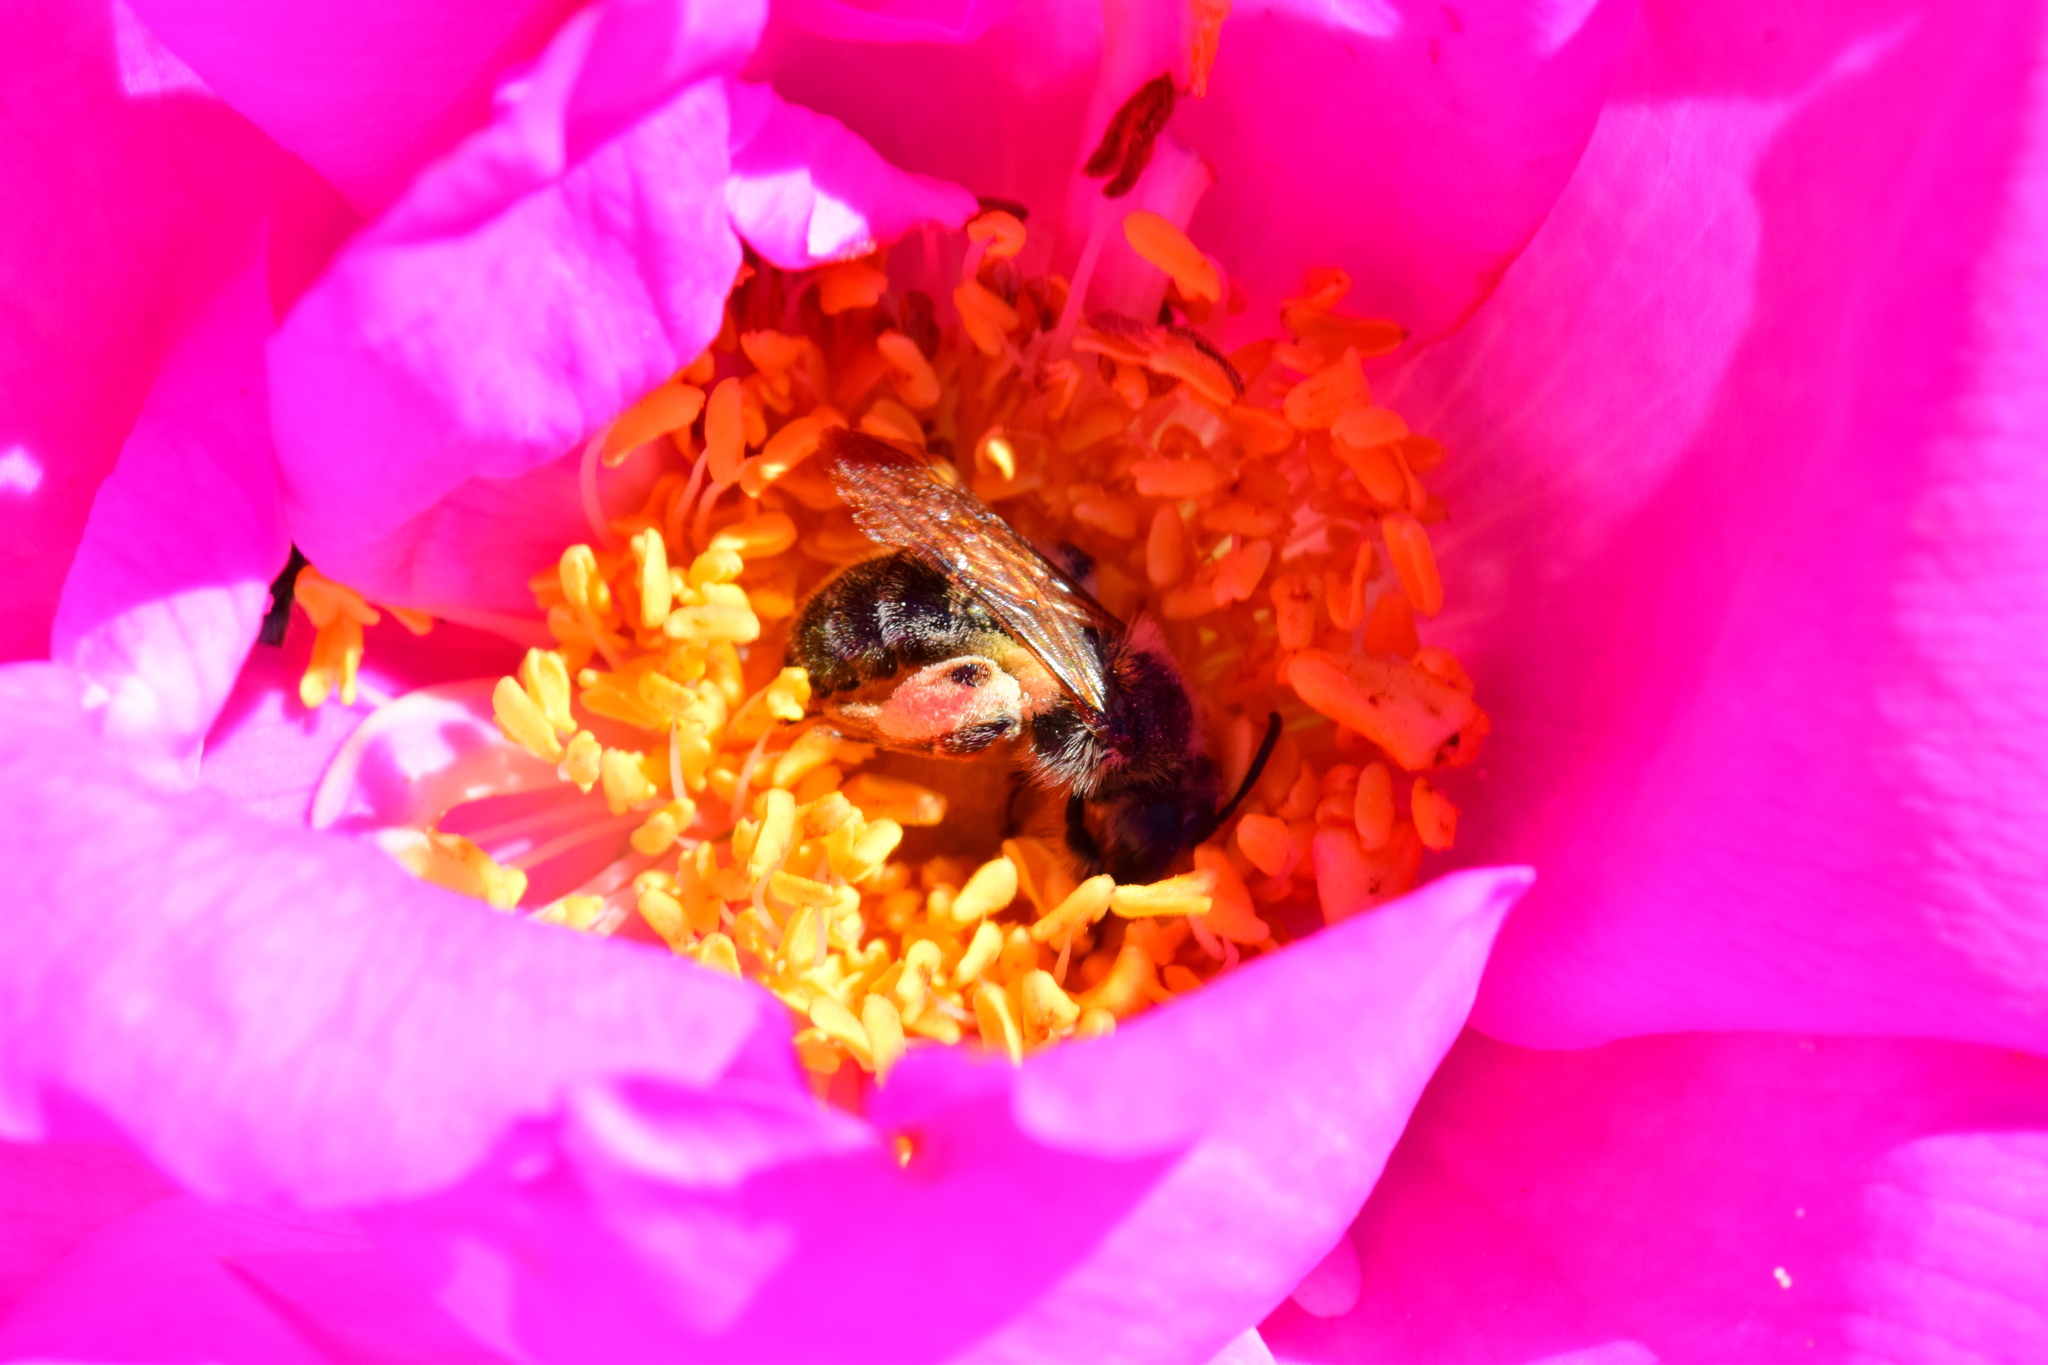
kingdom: Animalia
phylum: Arthropoda
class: Insecta
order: Hymenoptera
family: Andrenidae
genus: Andrena
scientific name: Andrena thaspii
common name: Parsnip miner bee
